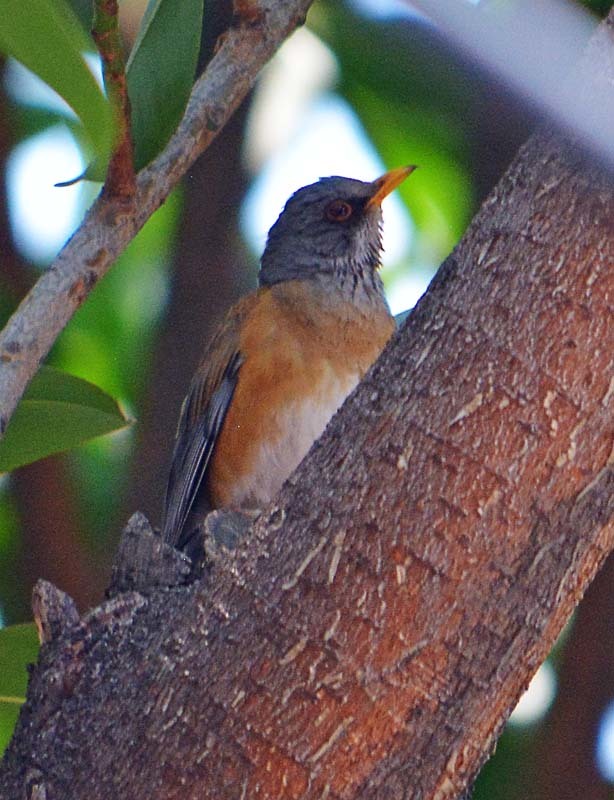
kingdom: Animalia
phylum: Chordata
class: Aves
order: Passeriformes
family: Turdidae
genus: Turdus
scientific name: Turdus rufopalliatus
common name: Rufous-backed robin
